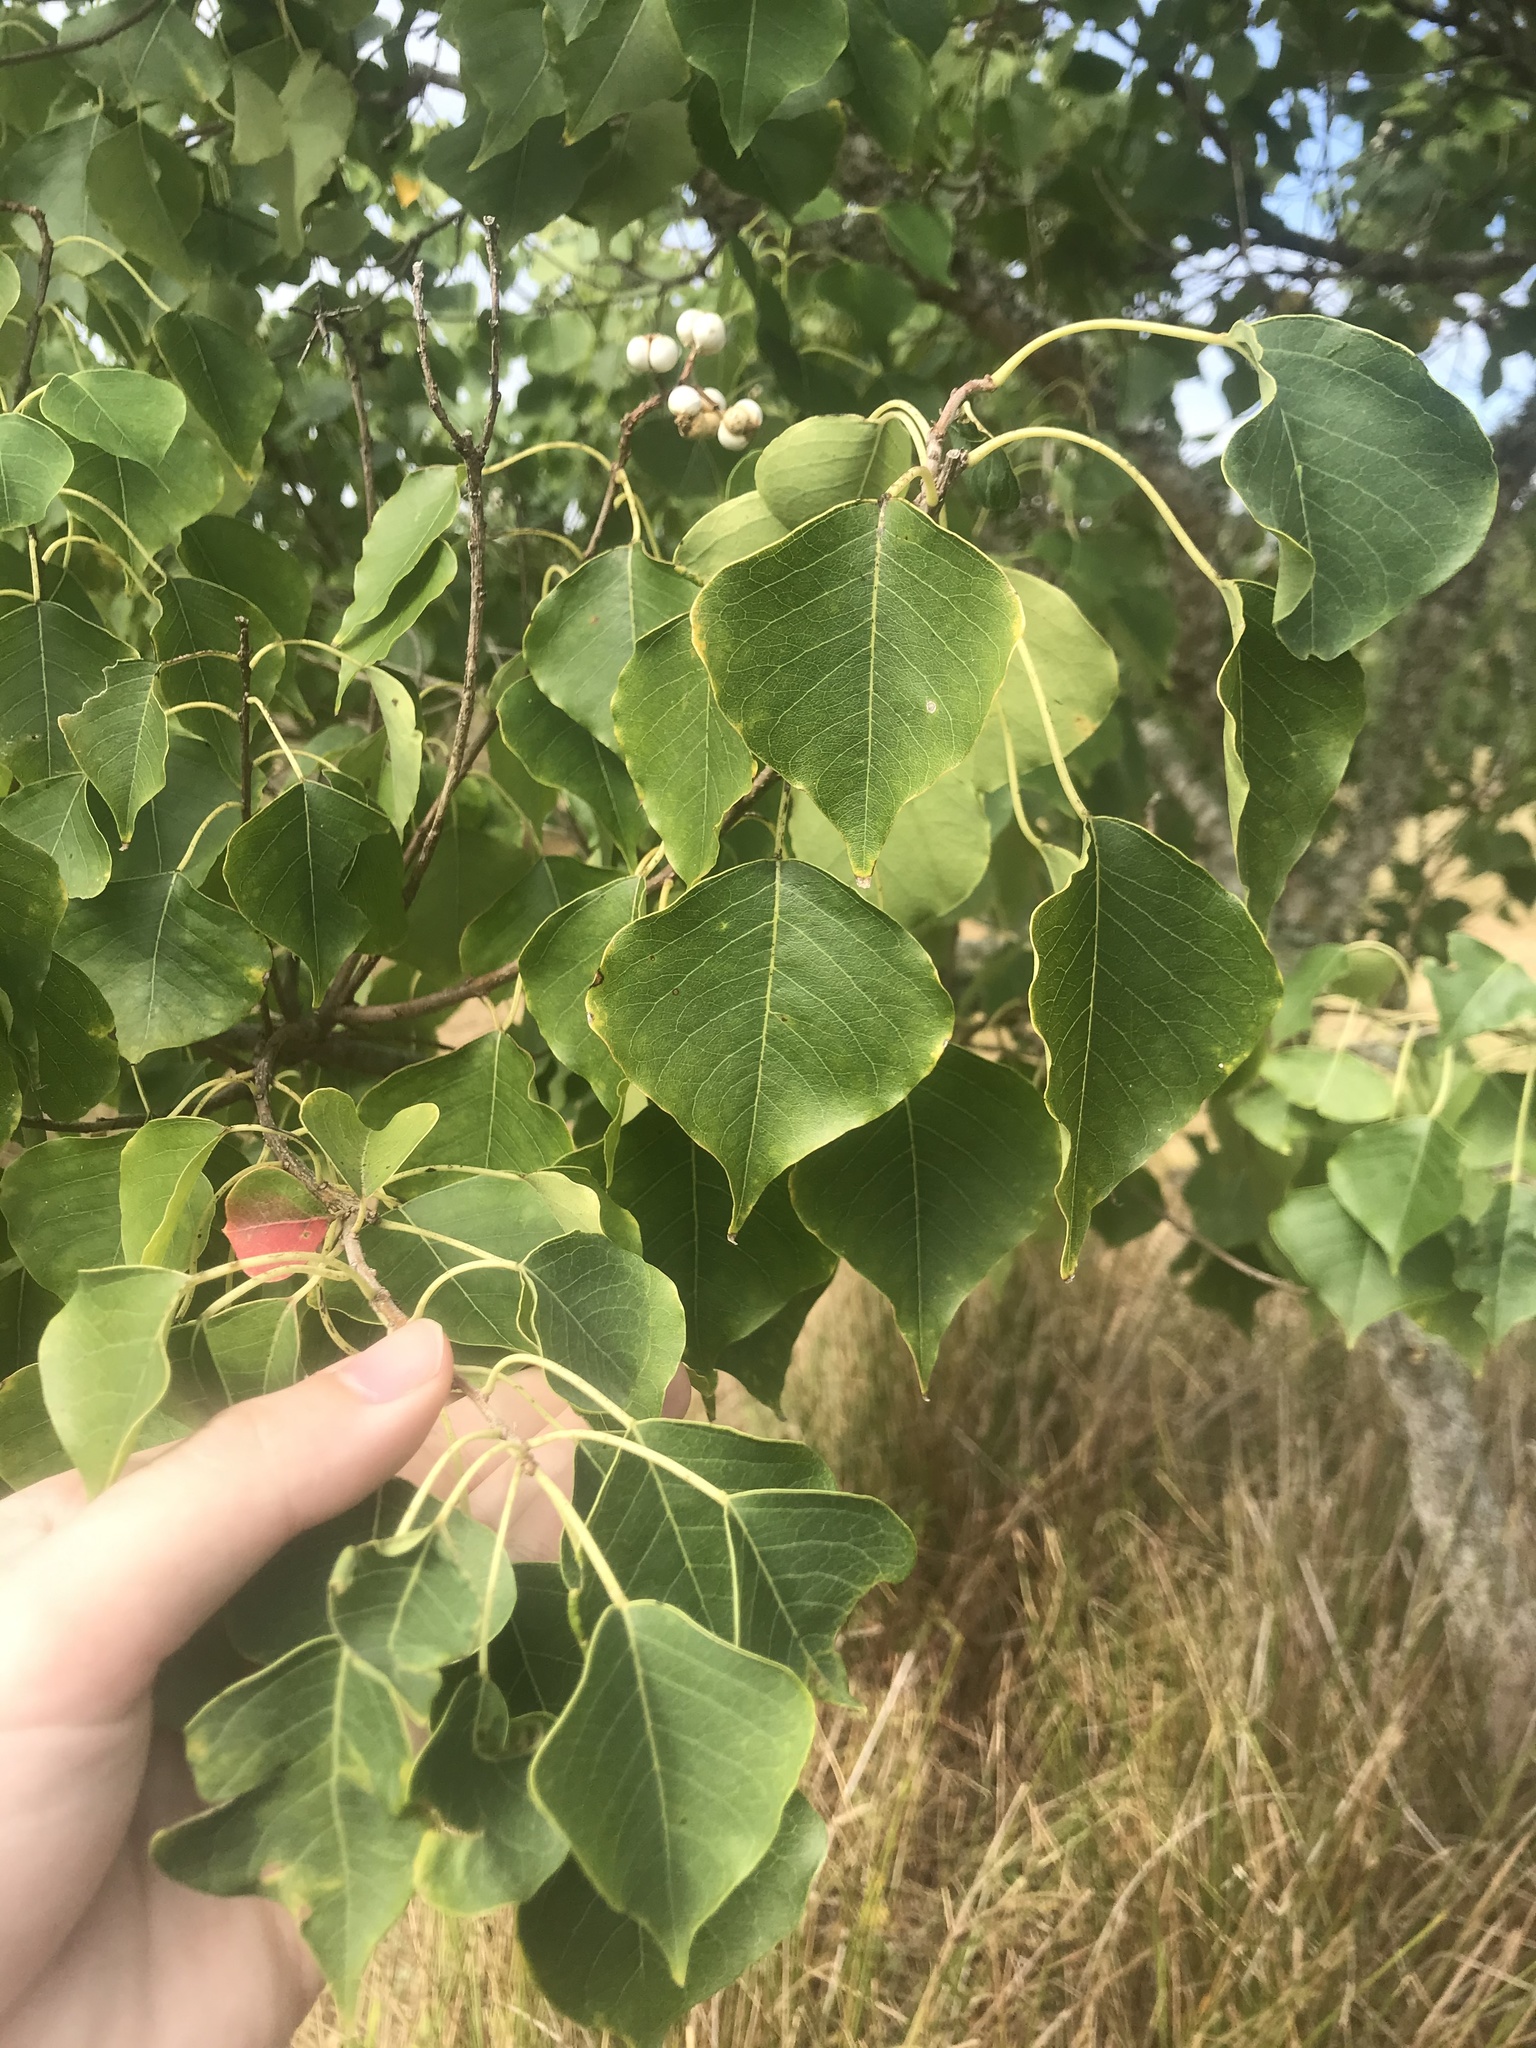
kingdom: Plantae
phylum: Tracheophyta
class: Magnoliopsida
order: Malpighiales
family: Euphorbiaceae
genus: Triadica
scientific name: Triadica sebifera
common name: Chinese tallow
